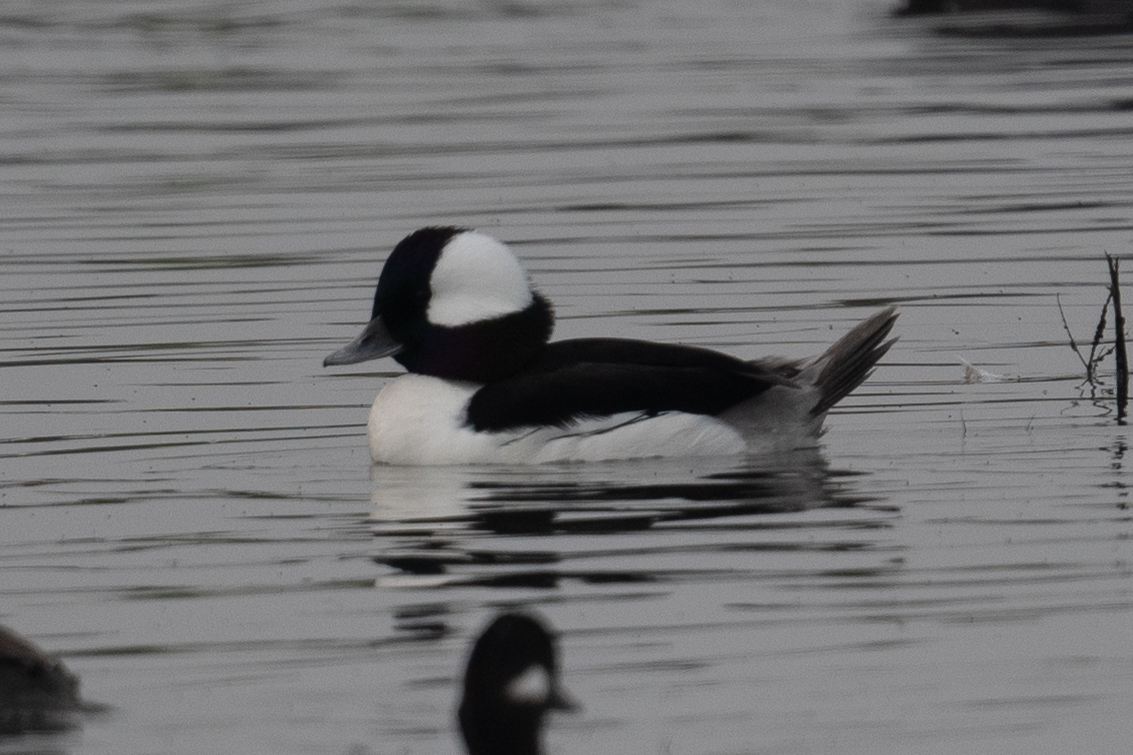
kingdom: Animalia
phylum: Chordata
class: Aves
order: Anseriformes
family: Anatidae
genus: Bucephala
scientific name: Bucephala albeola
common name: Bufflehead
